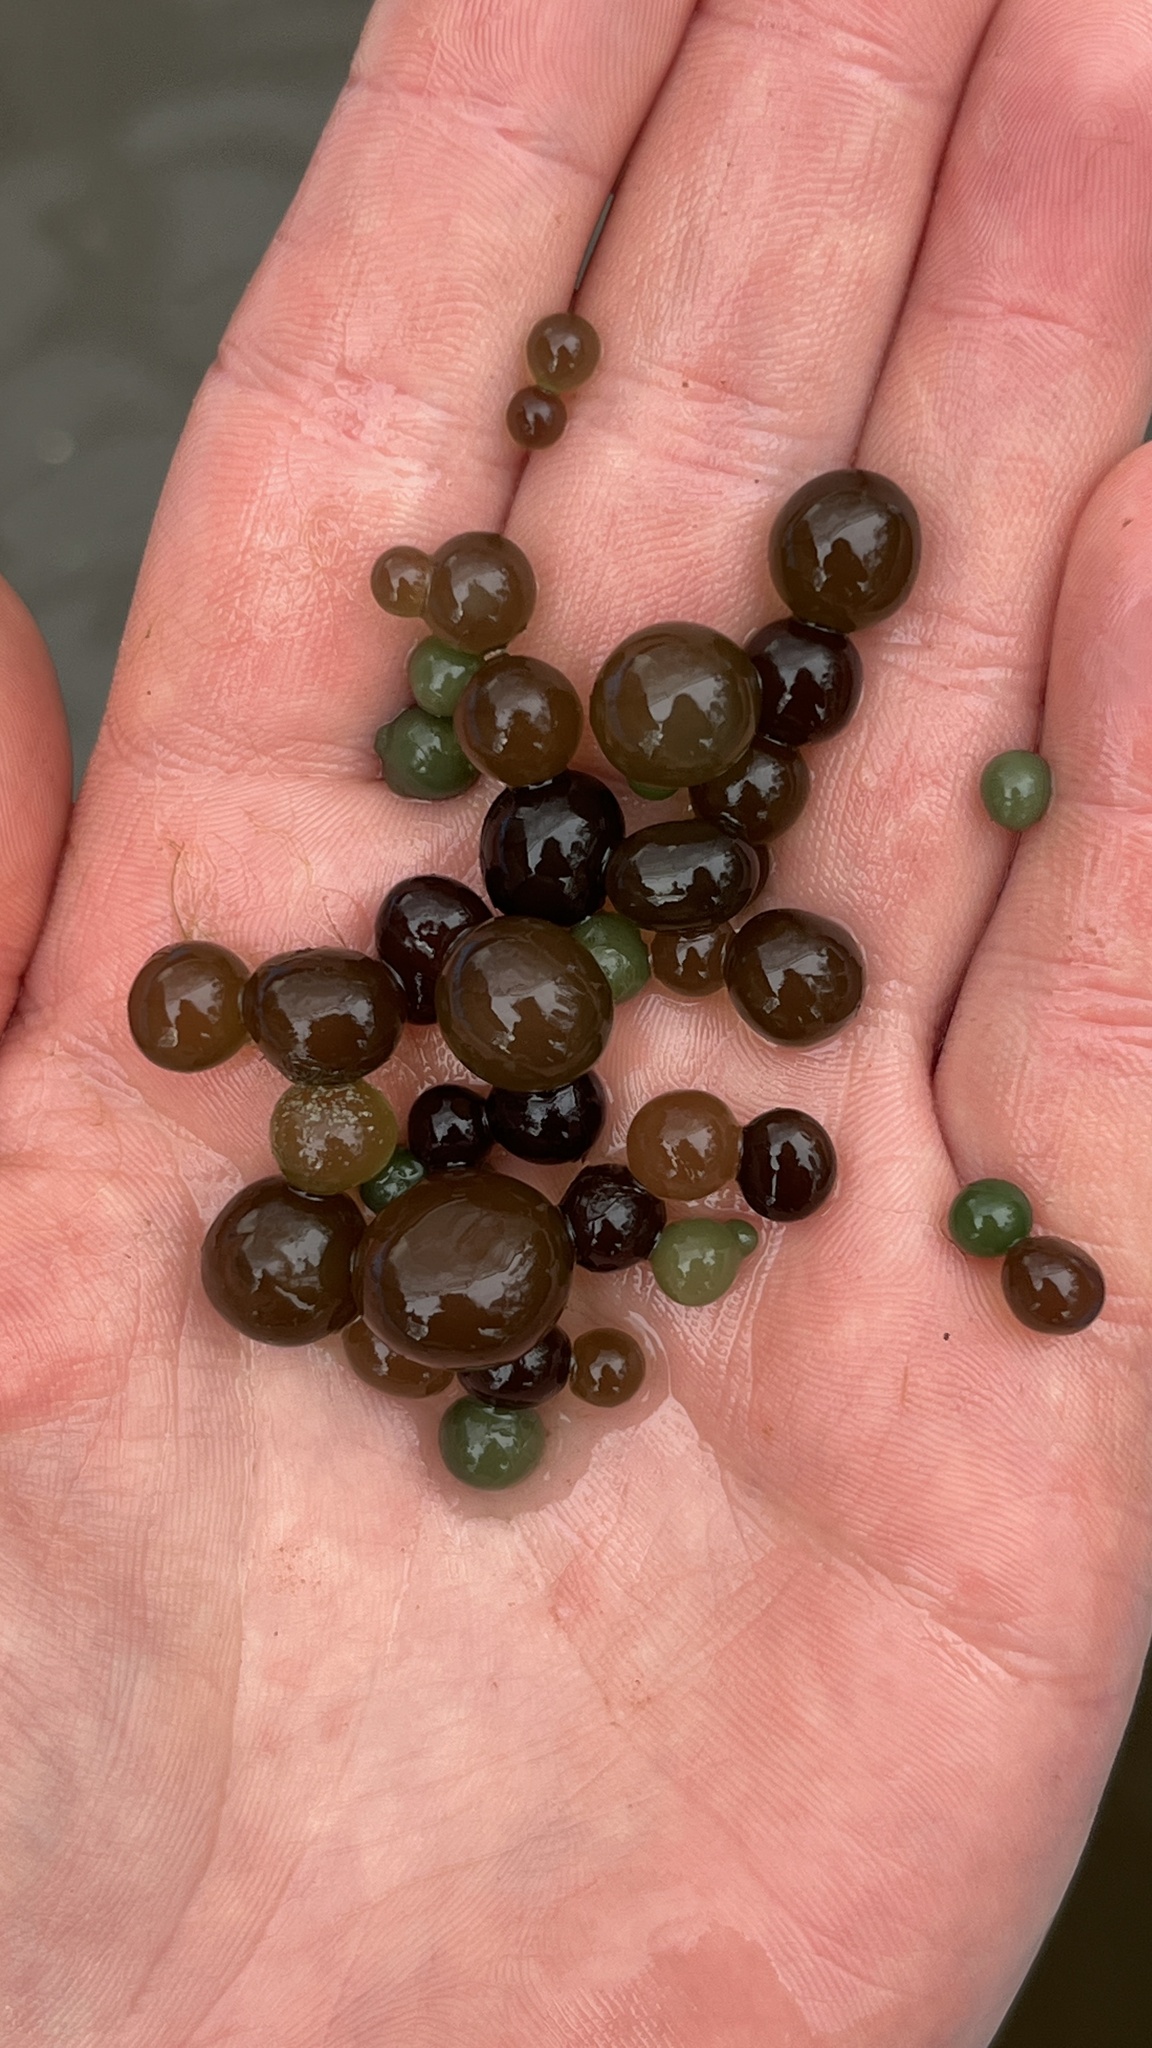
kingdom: Bacteria
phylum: Cyanobacteria
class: Cyanobacteriia
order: Cyanobacteriales
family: Nostocaceae
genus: Nostoc
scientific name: Nostoc pruniforme
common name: Mare's eggs
